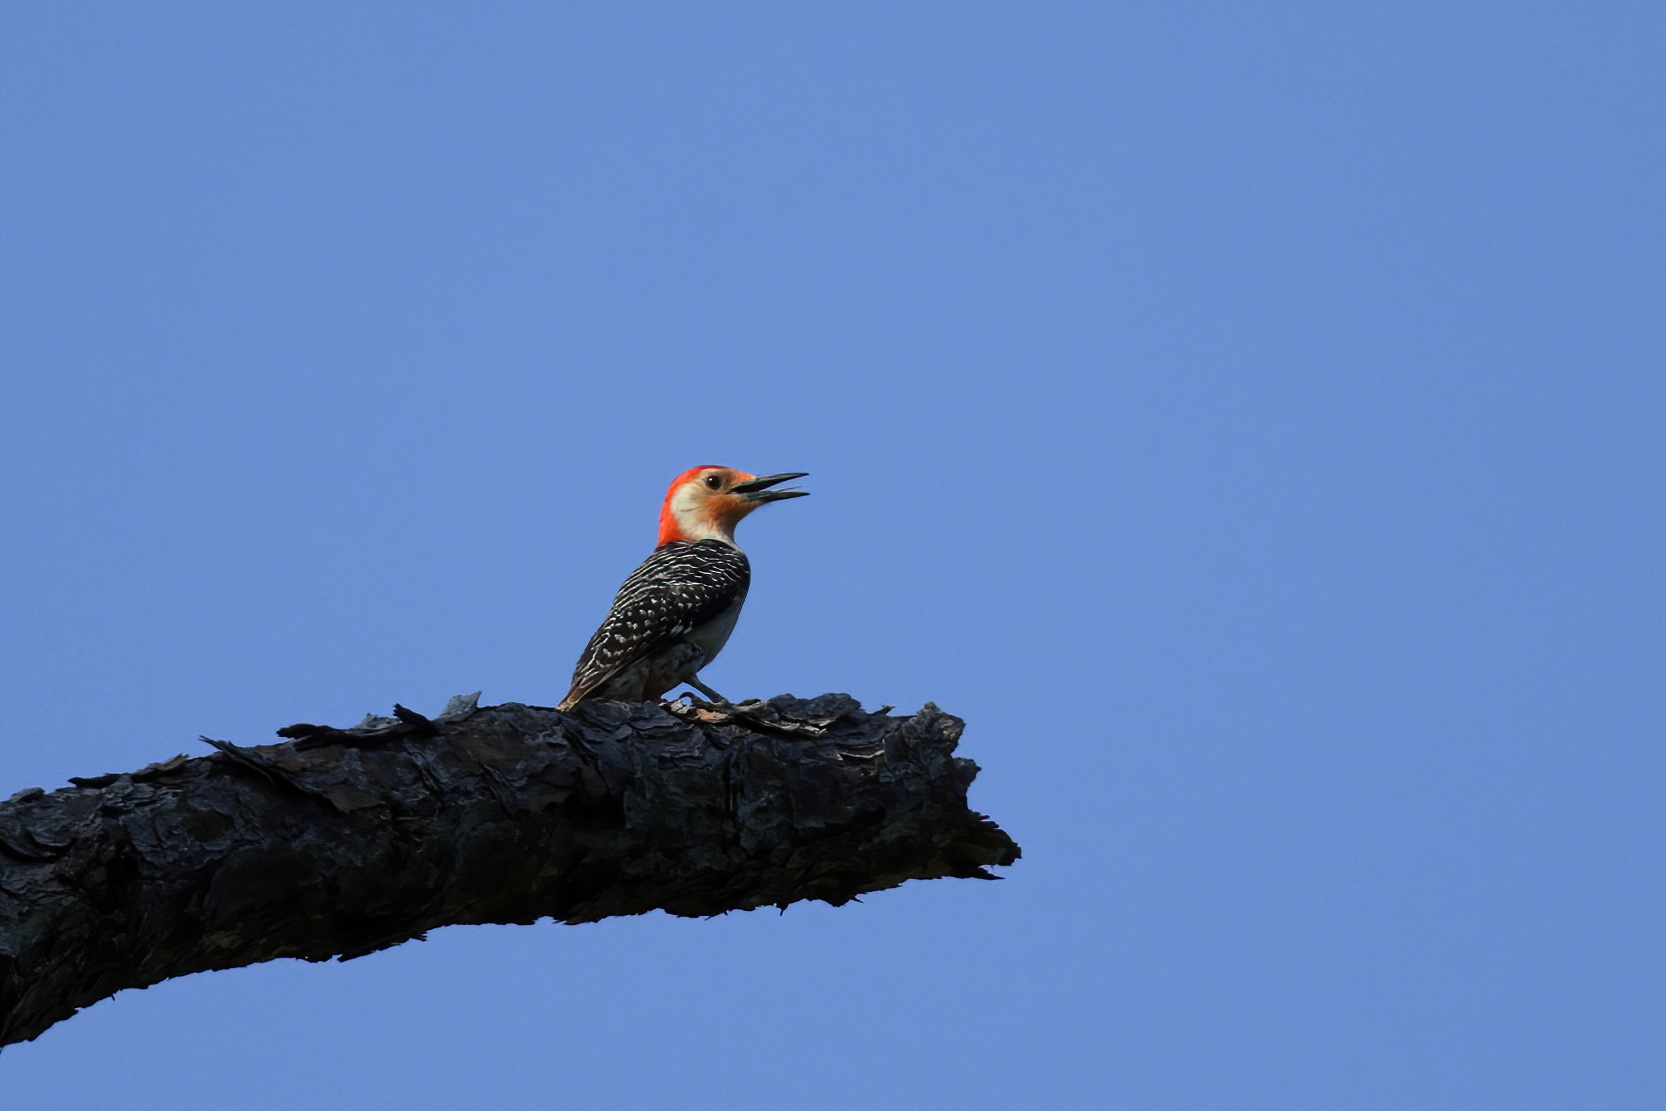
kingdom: Animalia
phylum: Chordata
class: Aves
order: Piciformes
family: Picidae
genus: Melanerpes
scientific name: Melanerpes carolinus
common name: Red-bellied woodpecker
